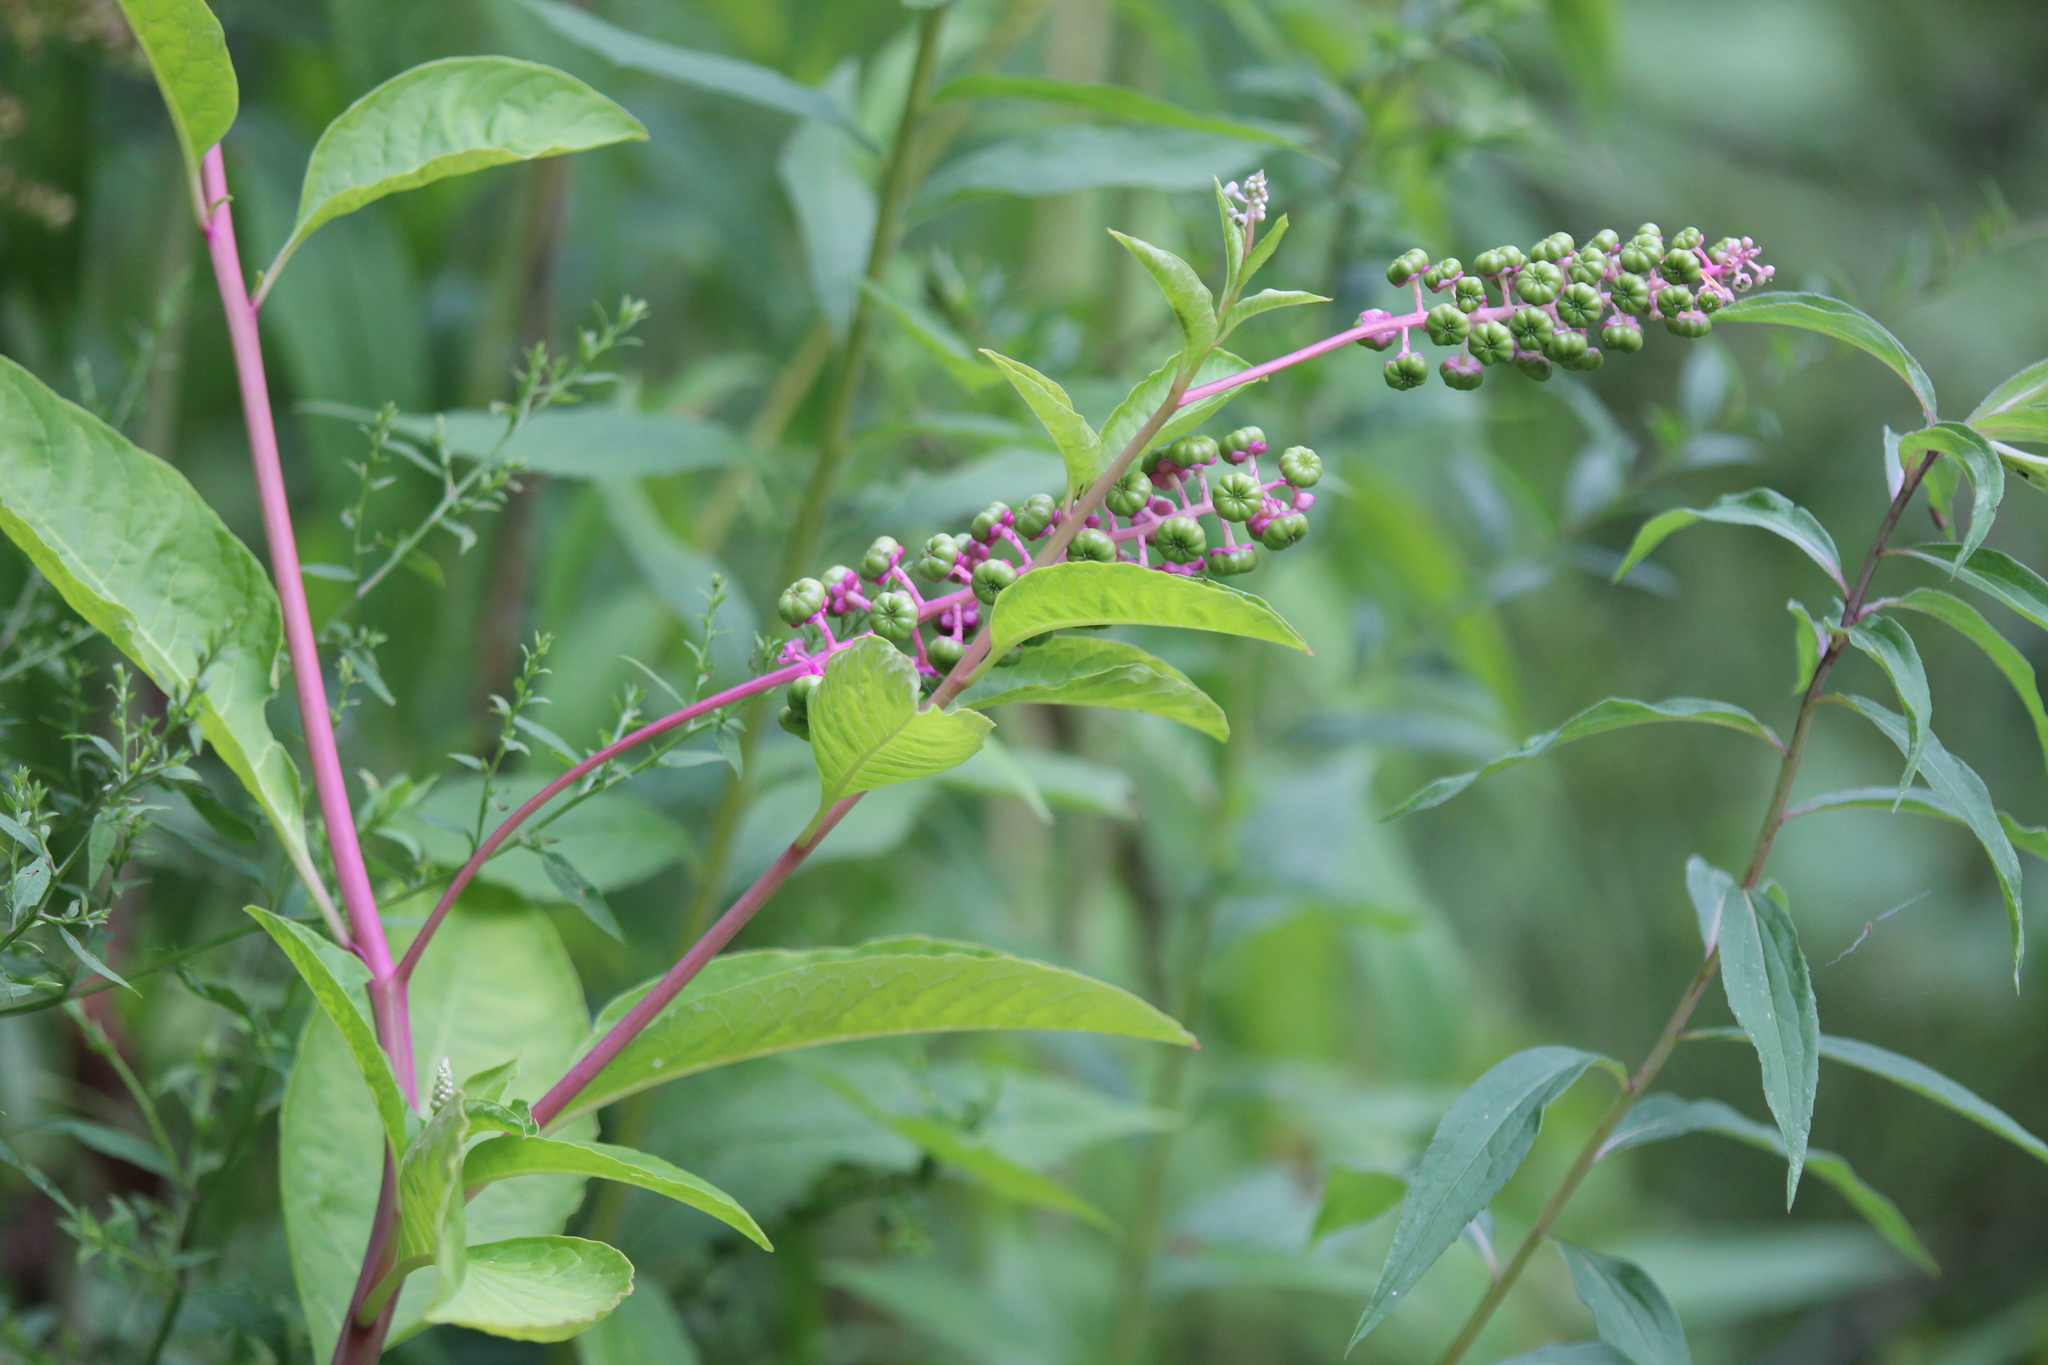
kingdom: Plantae
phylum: Tracheophyta
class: Magnoliopsida
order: Caryophyllales
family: Phytolaccaceae
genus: Phytolacca
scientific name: Phytolacca americana
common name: American pokeweed
